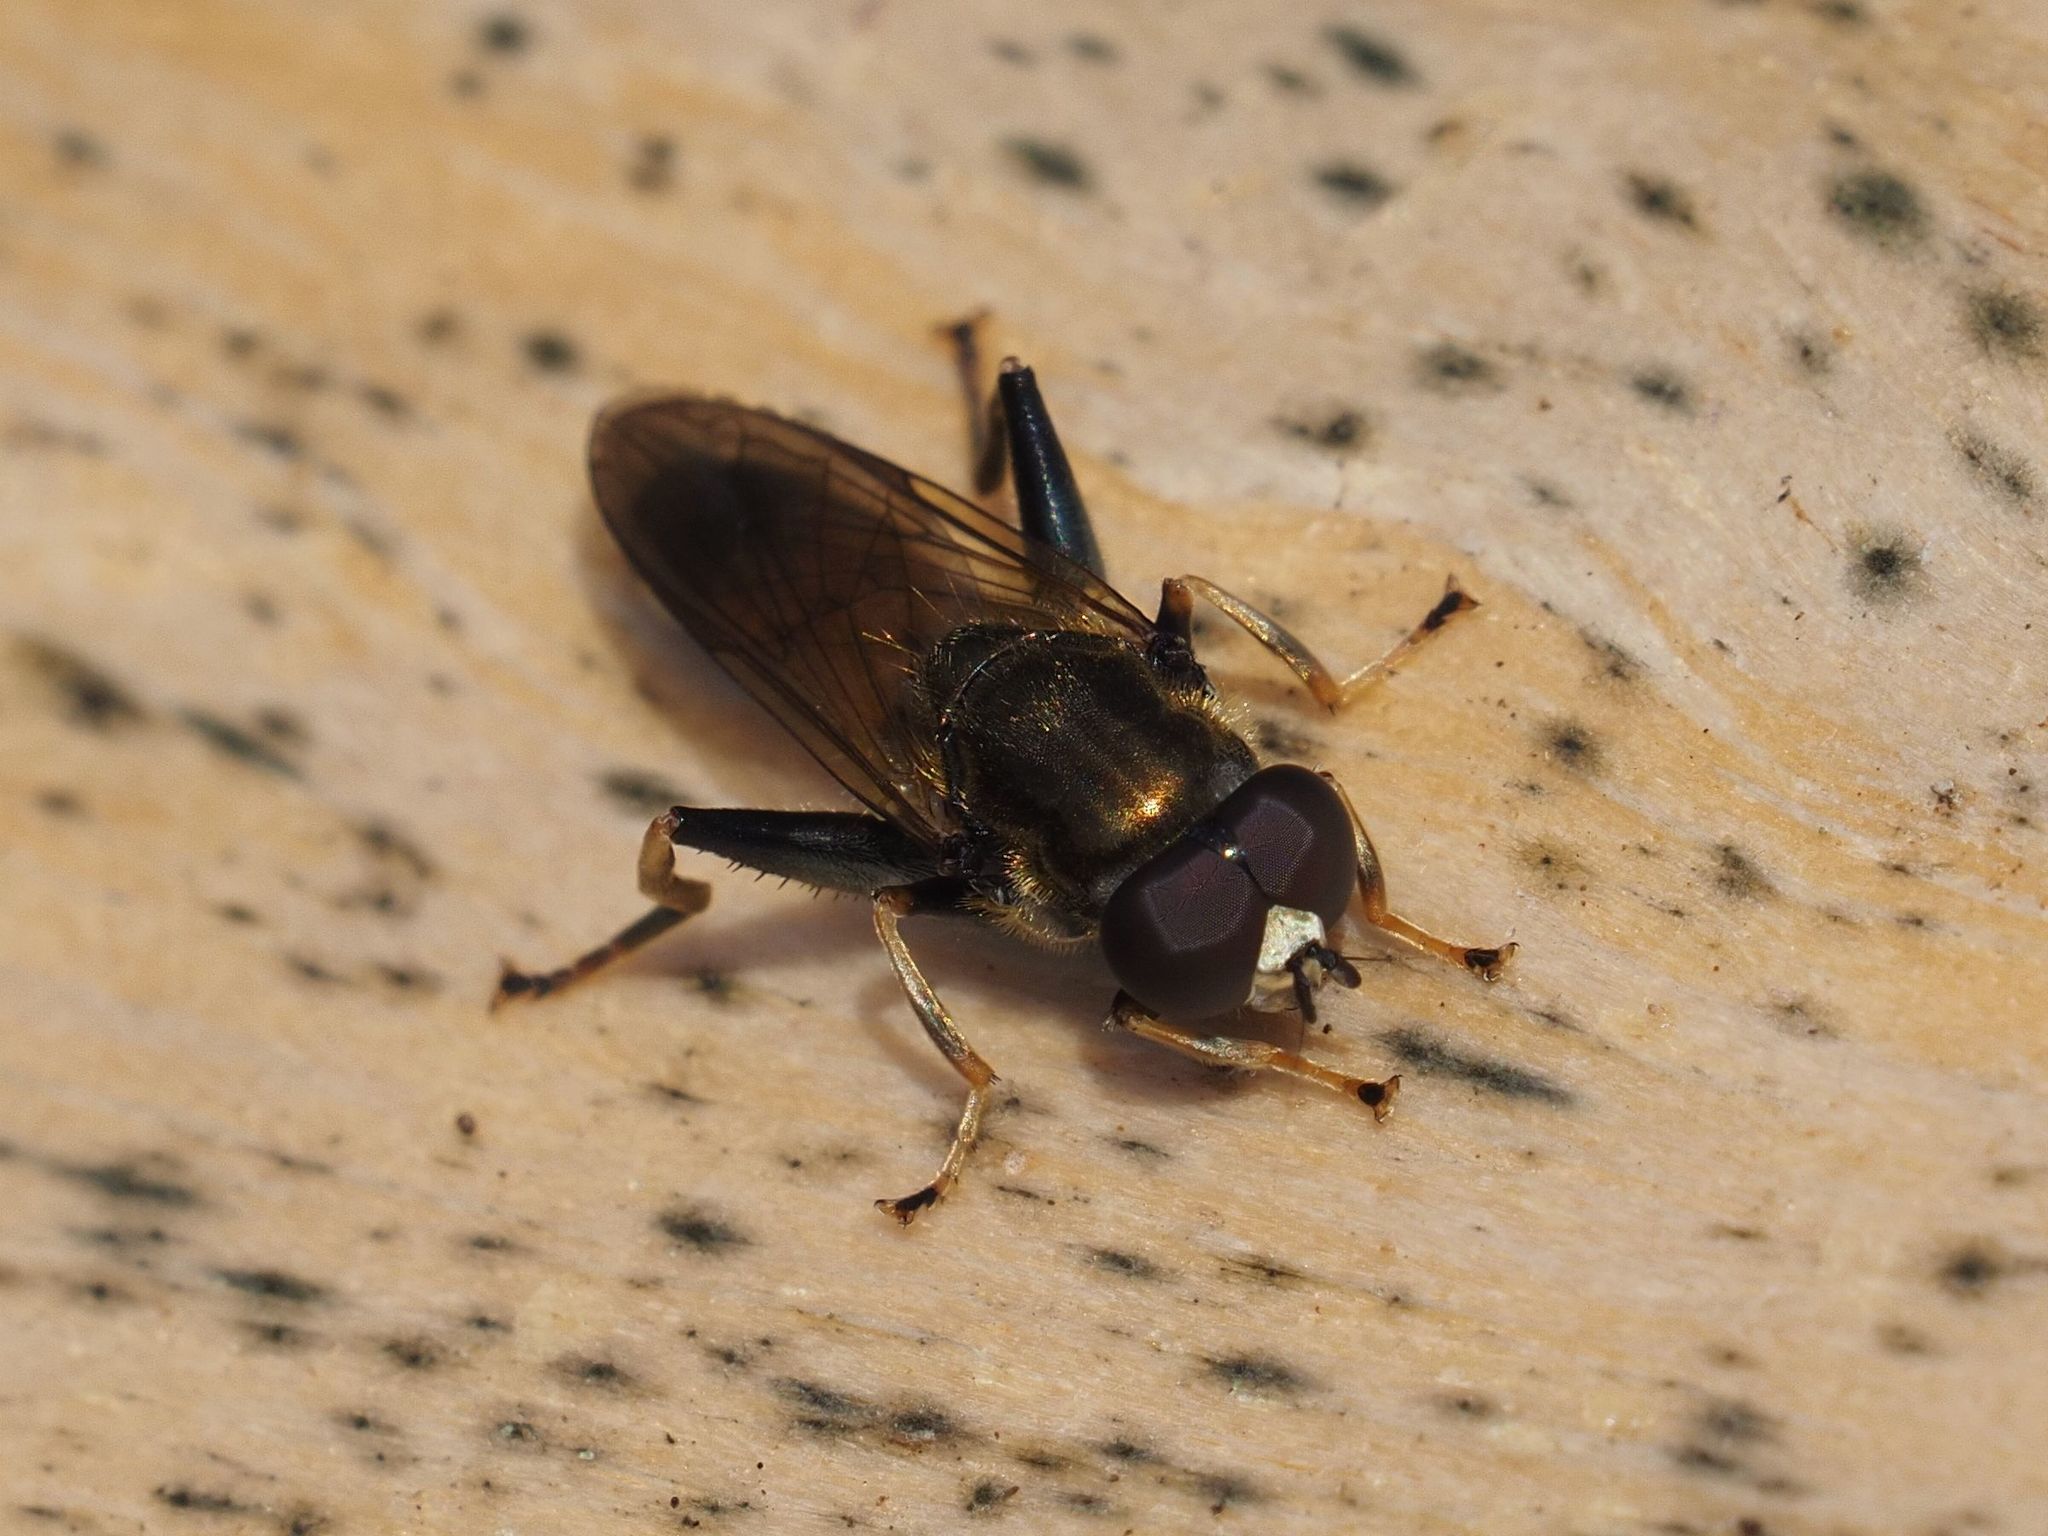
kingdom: Animalia
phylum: Arthropoda
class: Insecta
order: Diptera
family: Syrphidae
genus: Xylota
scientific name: Xylota segnis
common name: Brown-toed forest fly
